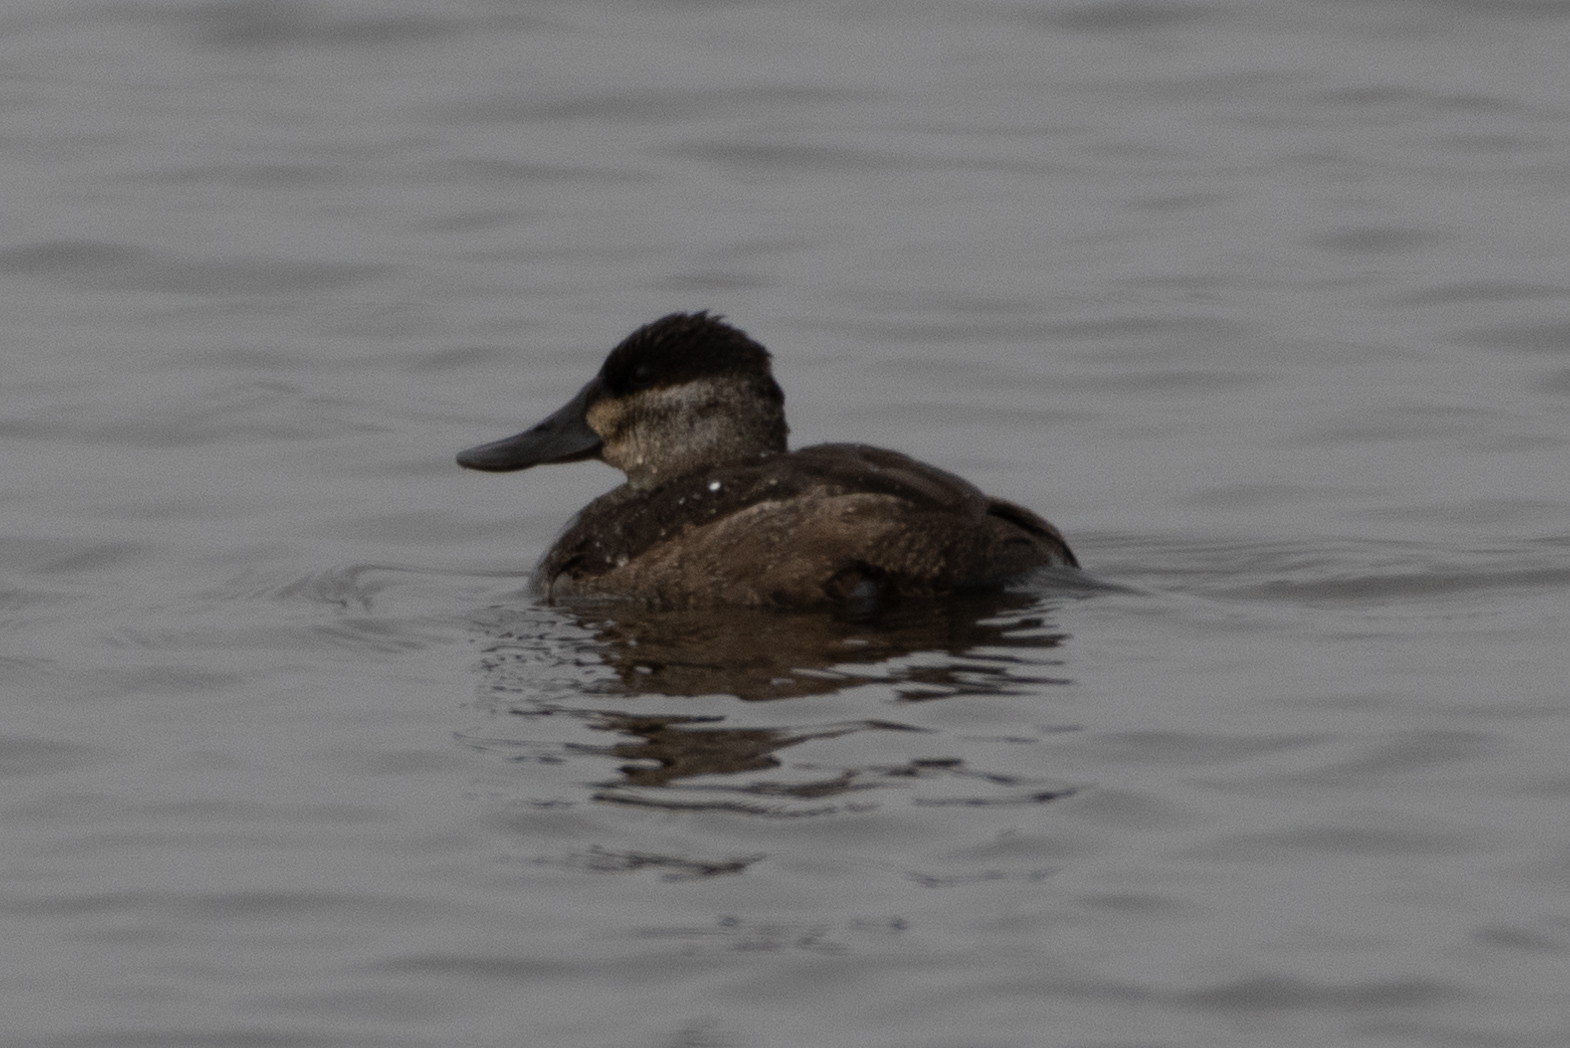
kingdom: Animalia
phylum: Chordata
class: Aves
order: Anseriformes
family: Anatidae
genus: Oxyura
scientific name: Oxyura jamaicensis
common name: Ruddy duck
